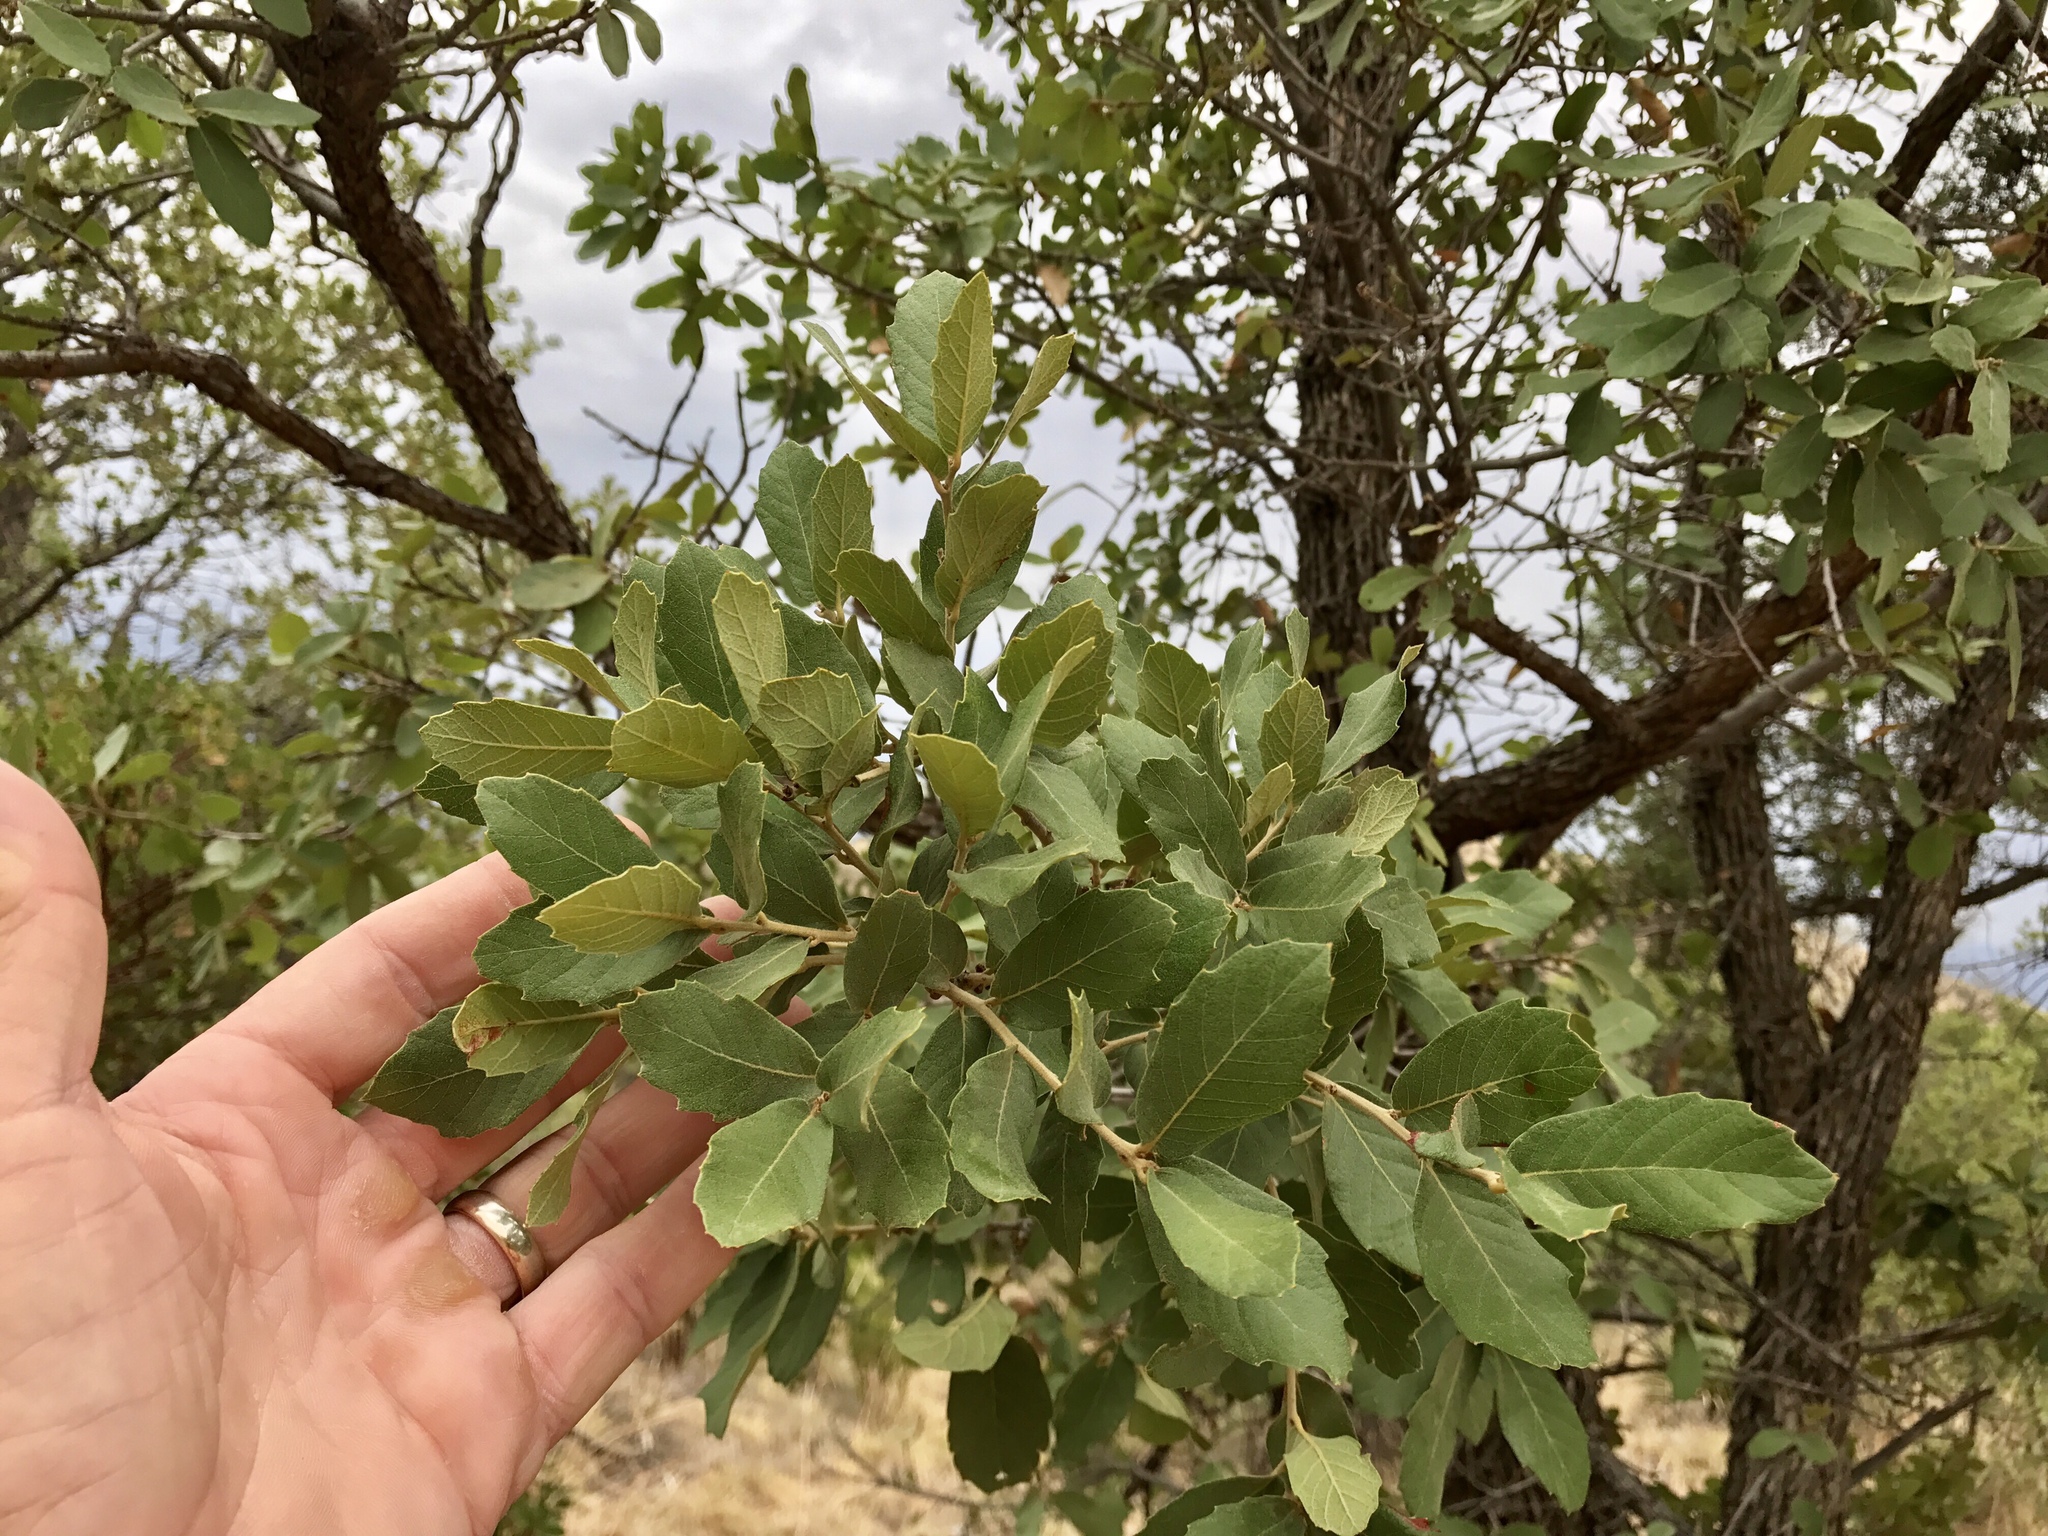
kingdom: Plantae
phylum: Tracheophyta
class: Magnoliopsida
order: Fagales
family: Fagaceae
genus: Quercus
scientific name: Quercus grisea
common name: Gray oak
